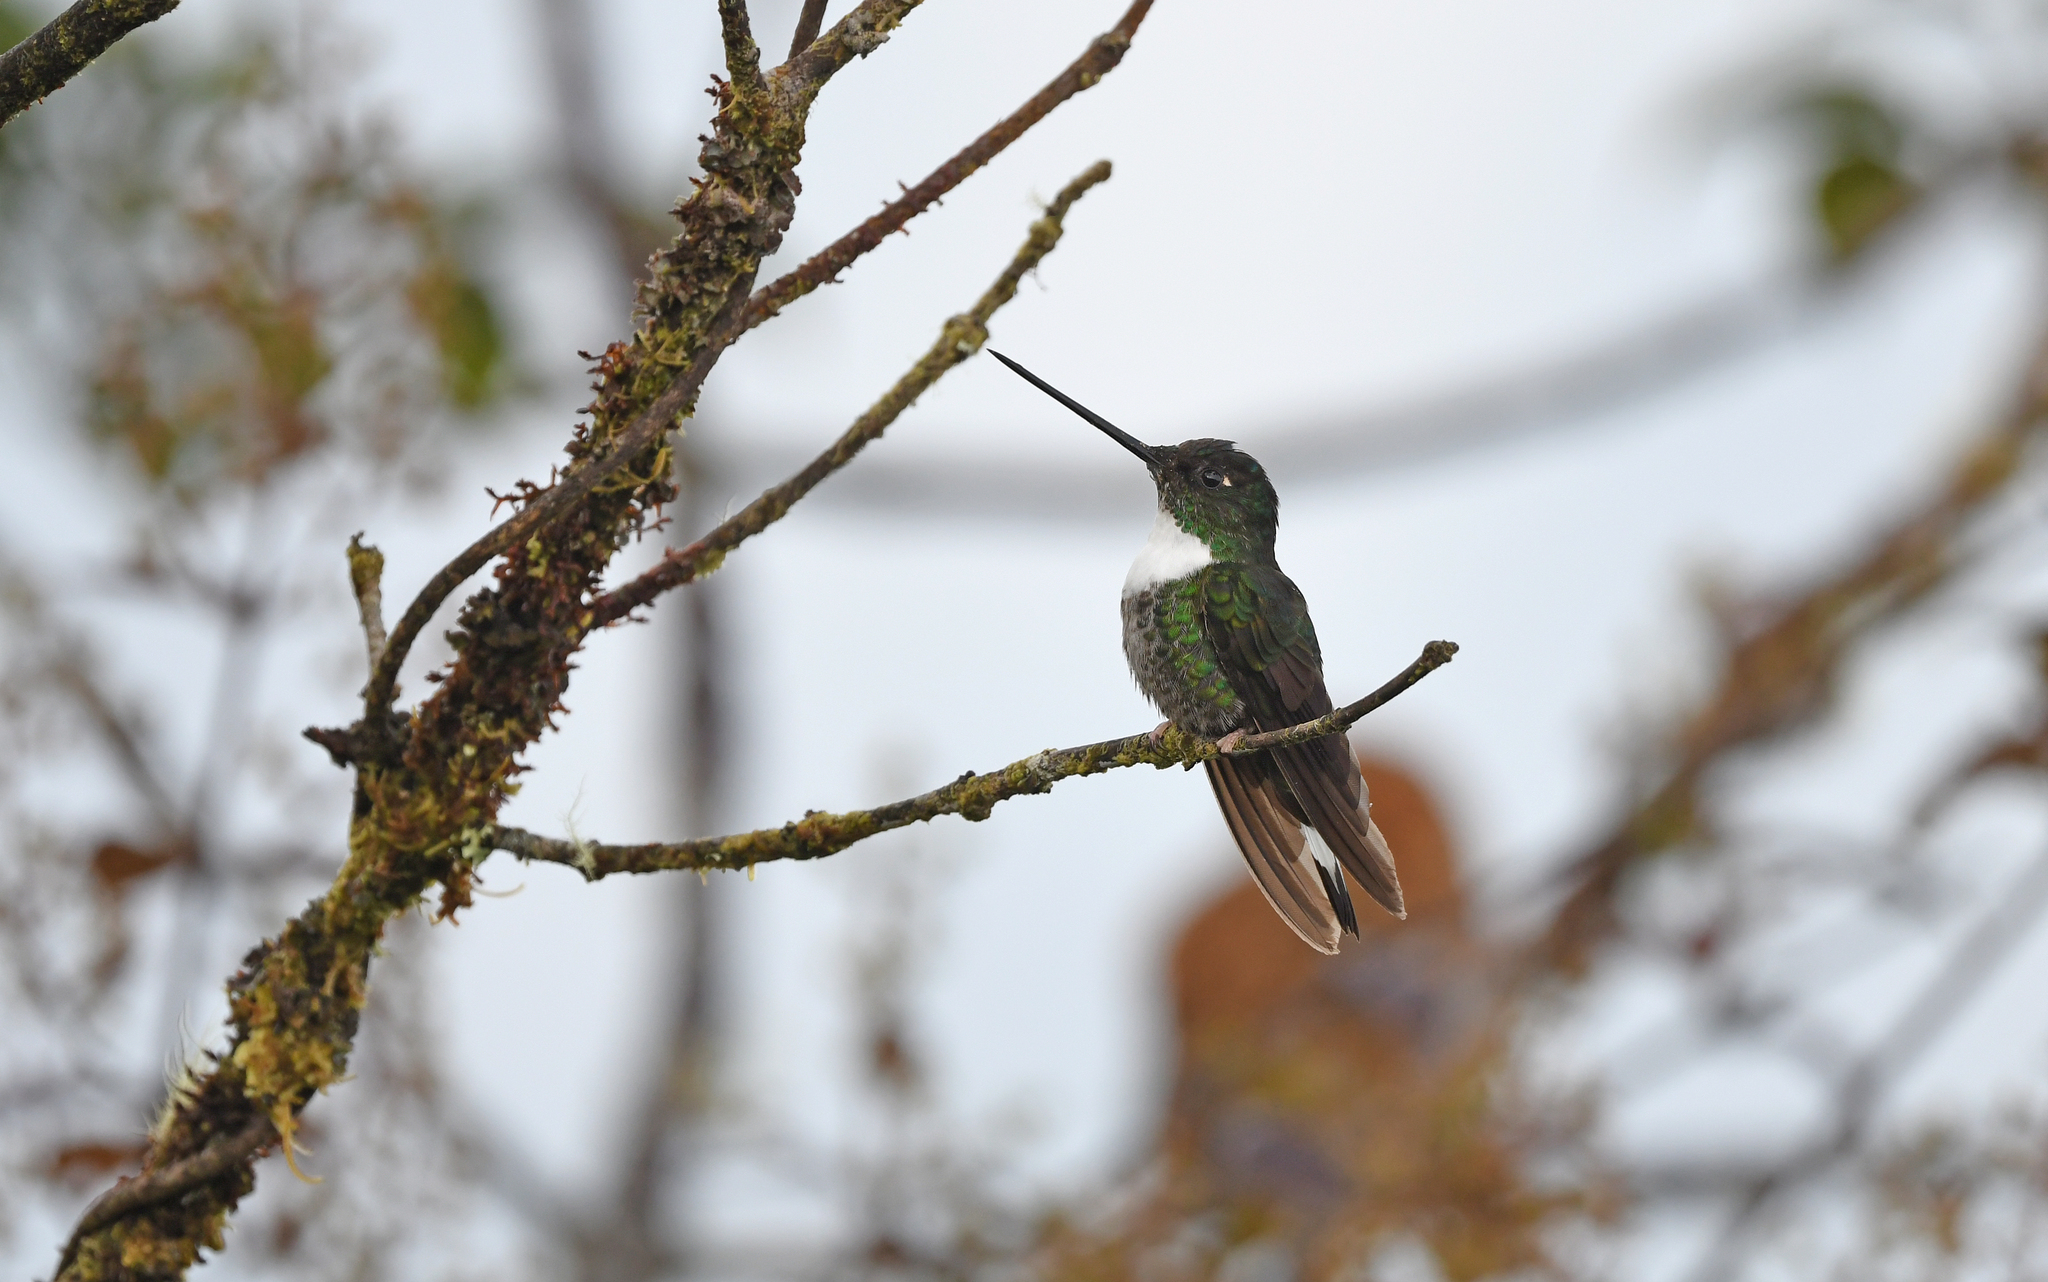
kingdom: Animalia
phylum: Chordata
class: Aves
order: Apodiformes
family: Trochilidae
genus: Coeligena
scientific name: Coeligena torquata
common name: Collared inca
